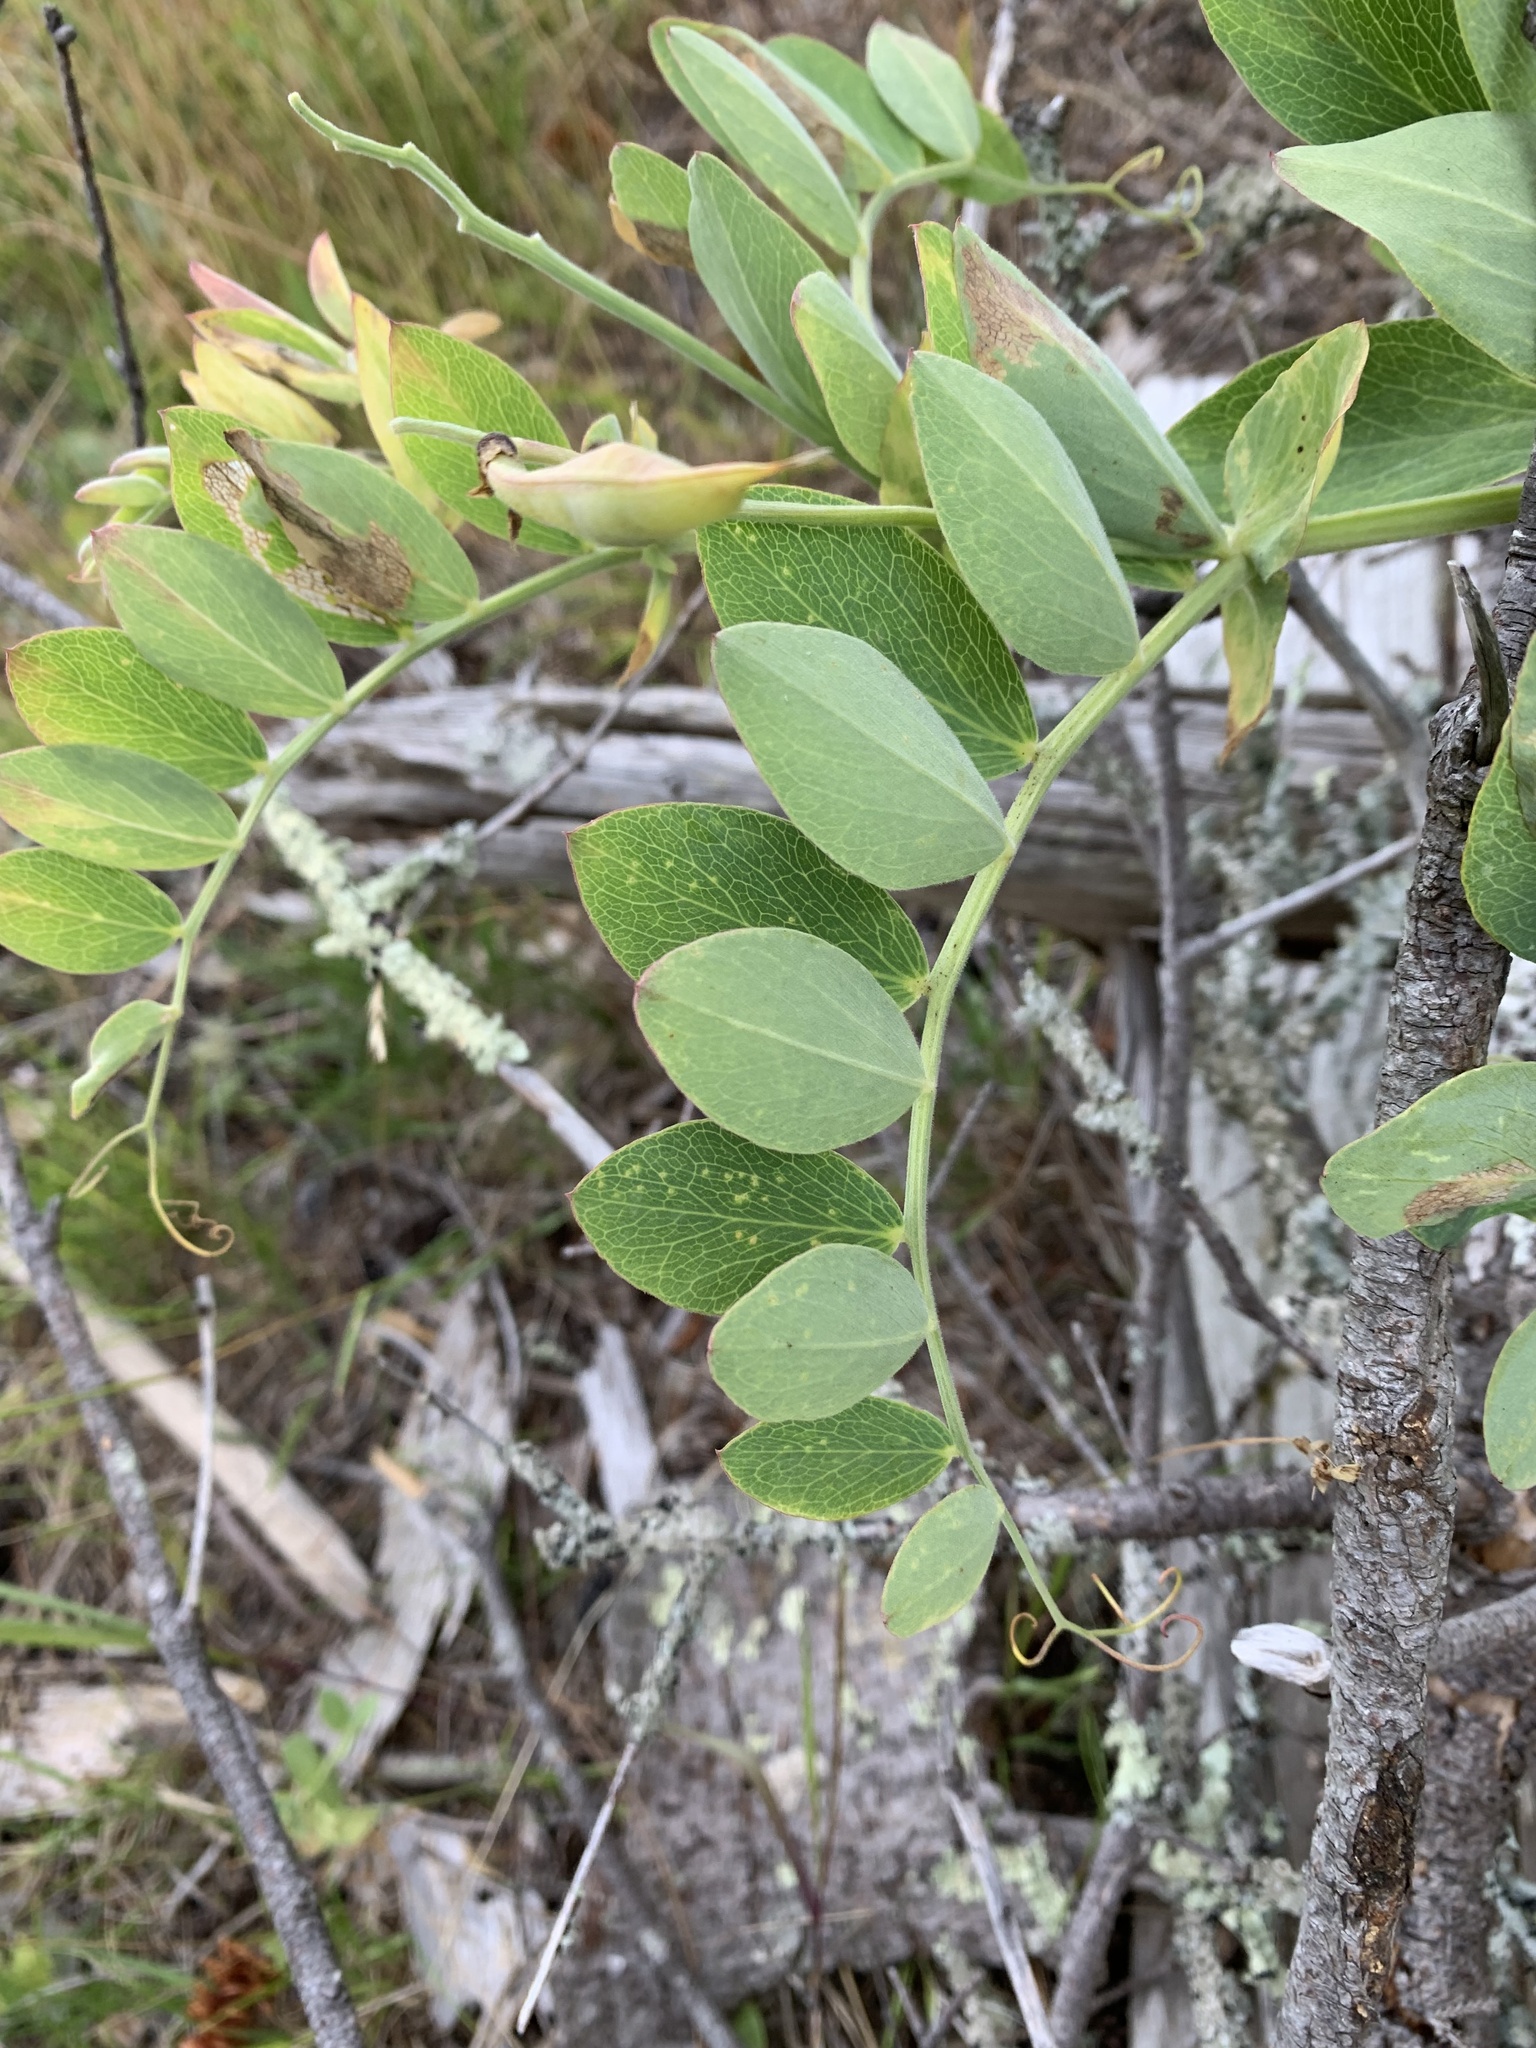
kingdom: Plantae
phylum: Tracheophyta
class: Magnoliopsida
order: Fabales
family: Fabaceae
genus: Lathyrus
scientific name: Lathyrus japonicus
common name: Sea pea
